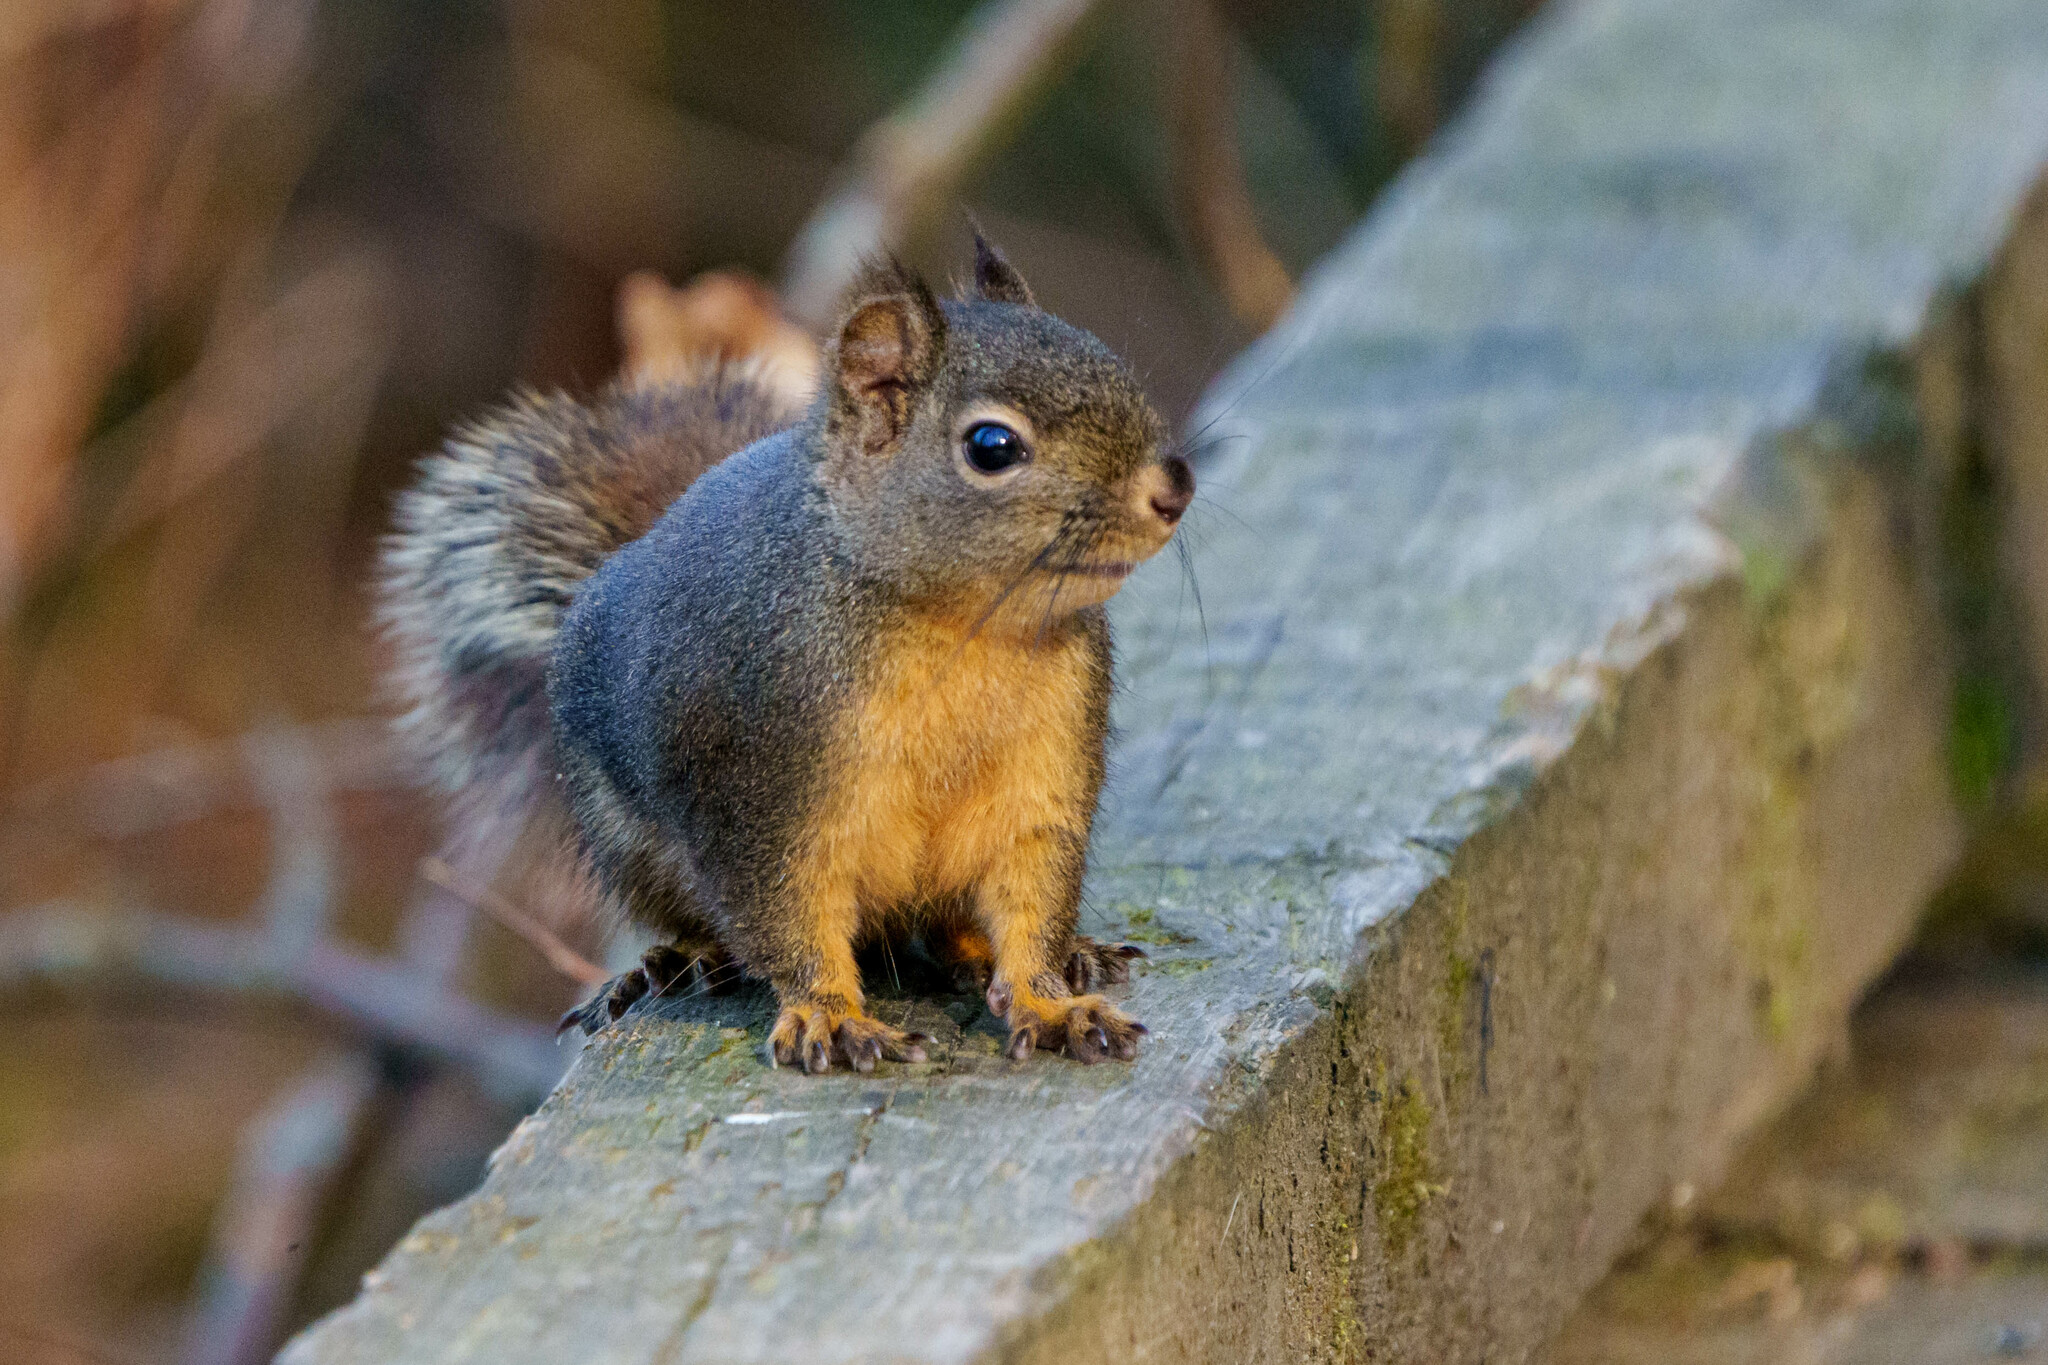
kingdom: Animalia
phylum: Chordata
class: Mammalia
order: Rodentia
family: Sciuridae
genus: Tamiasciurus
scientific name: Tamiasciurus douglasii
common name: Douglas's squirrel
